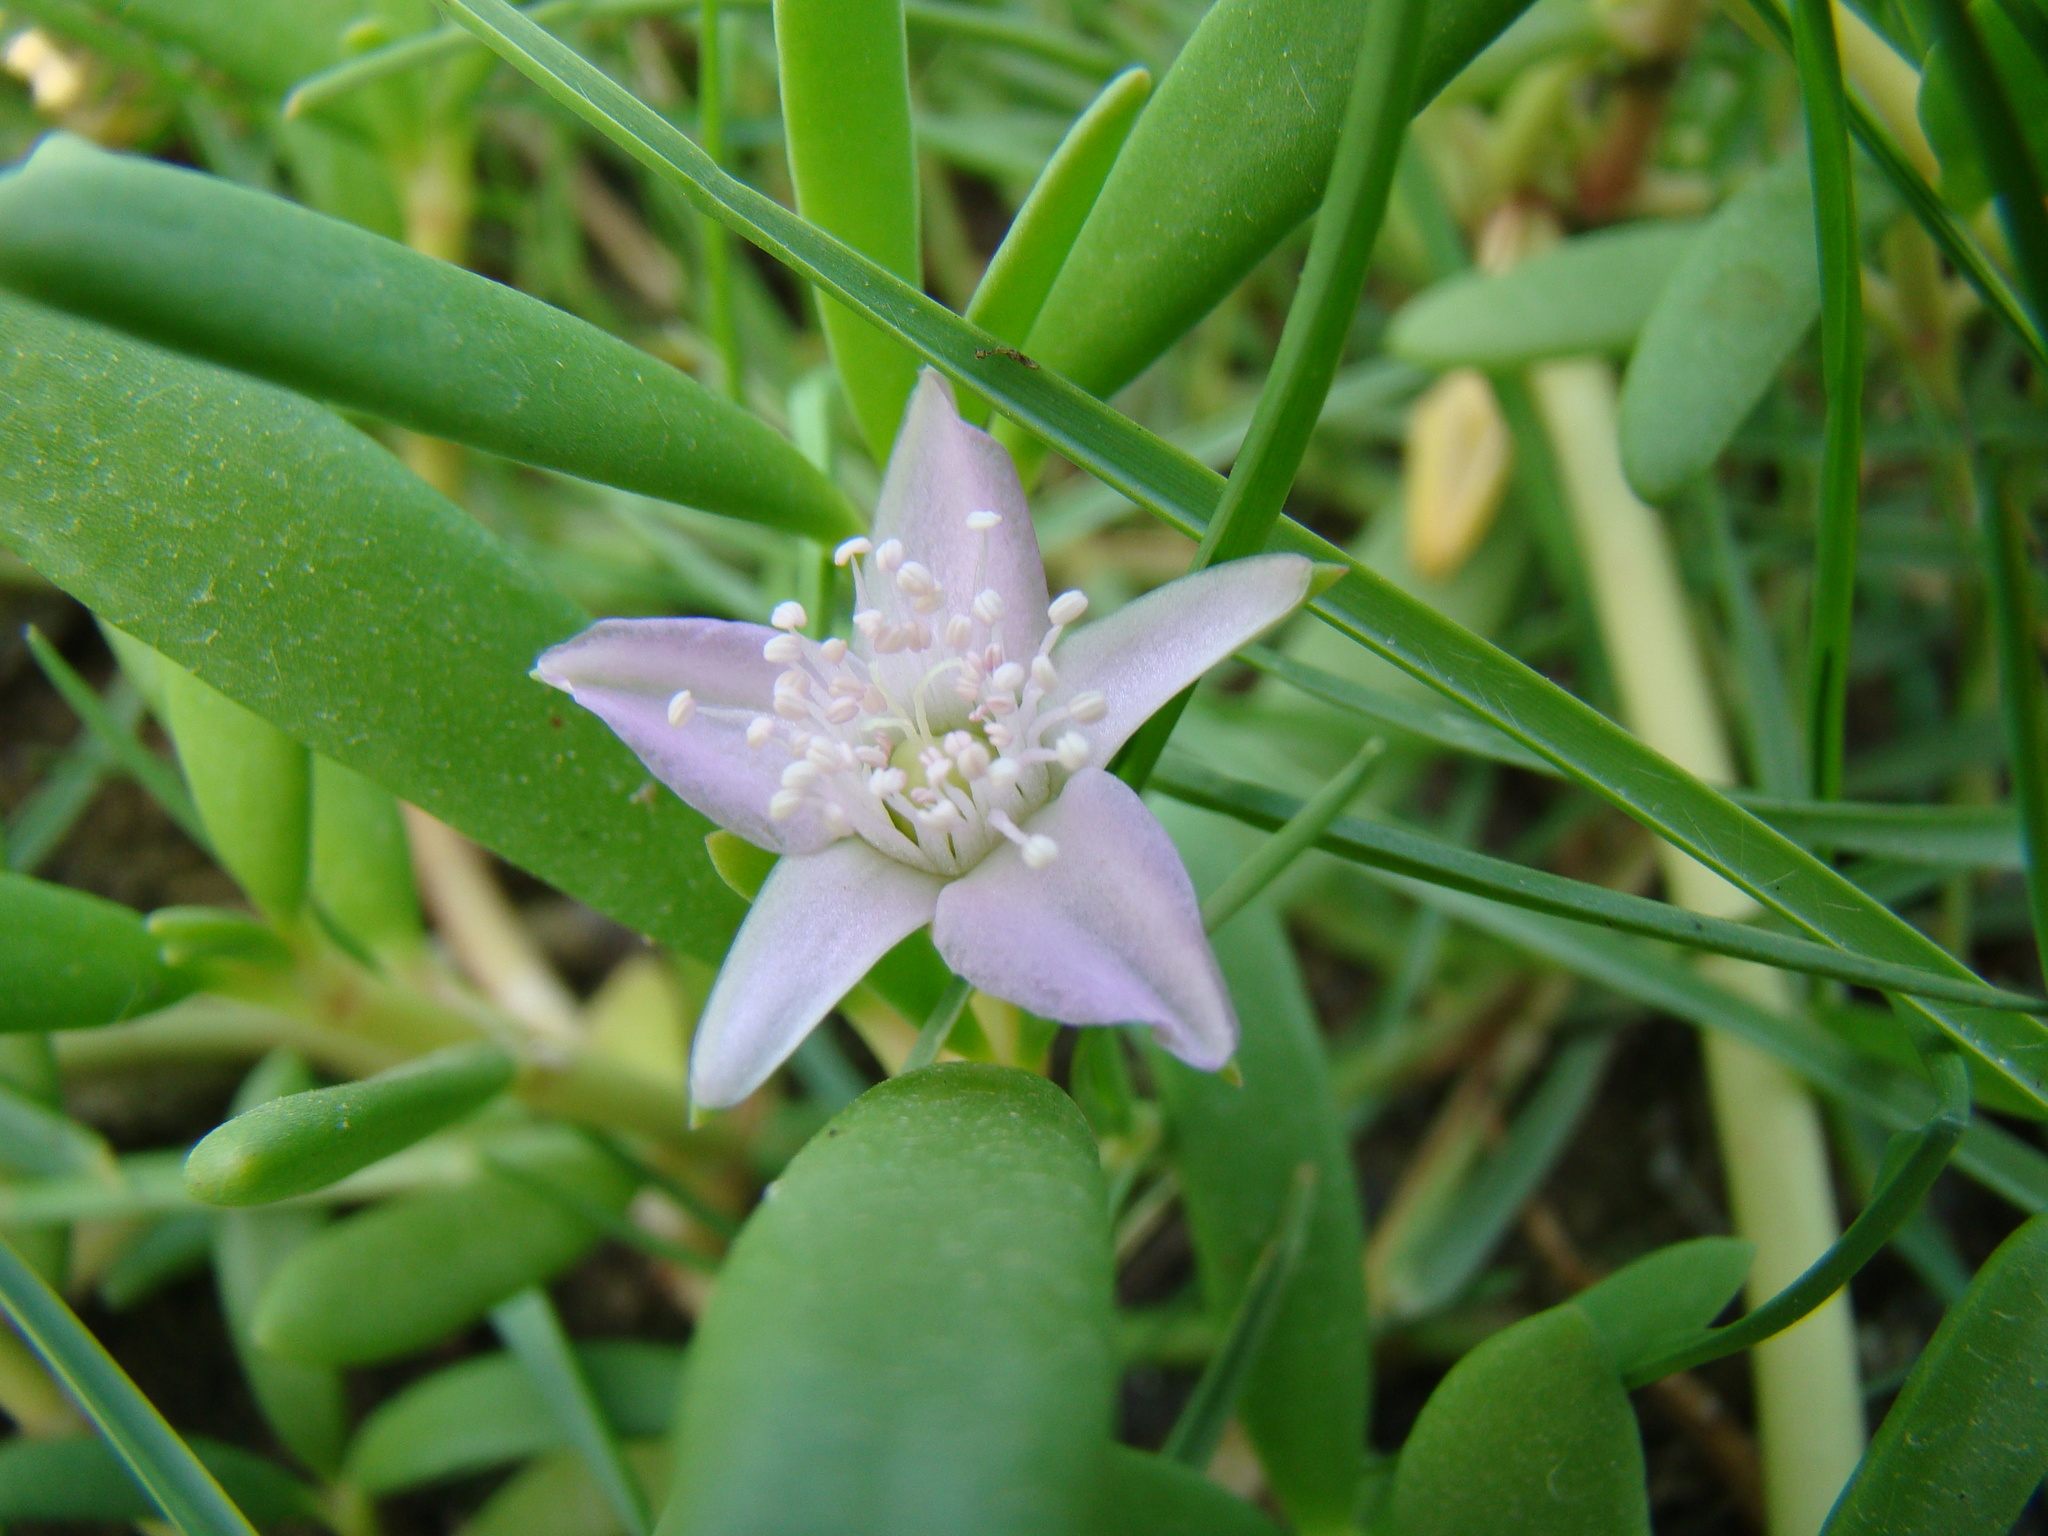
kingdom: Plantae
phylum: Tracheophyta
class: Magnoliopsida
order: Caryophyllales
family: Aizoaceae
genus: Sesuvium
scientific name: Sesuvium portulacastrum
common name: Sea-purslane
